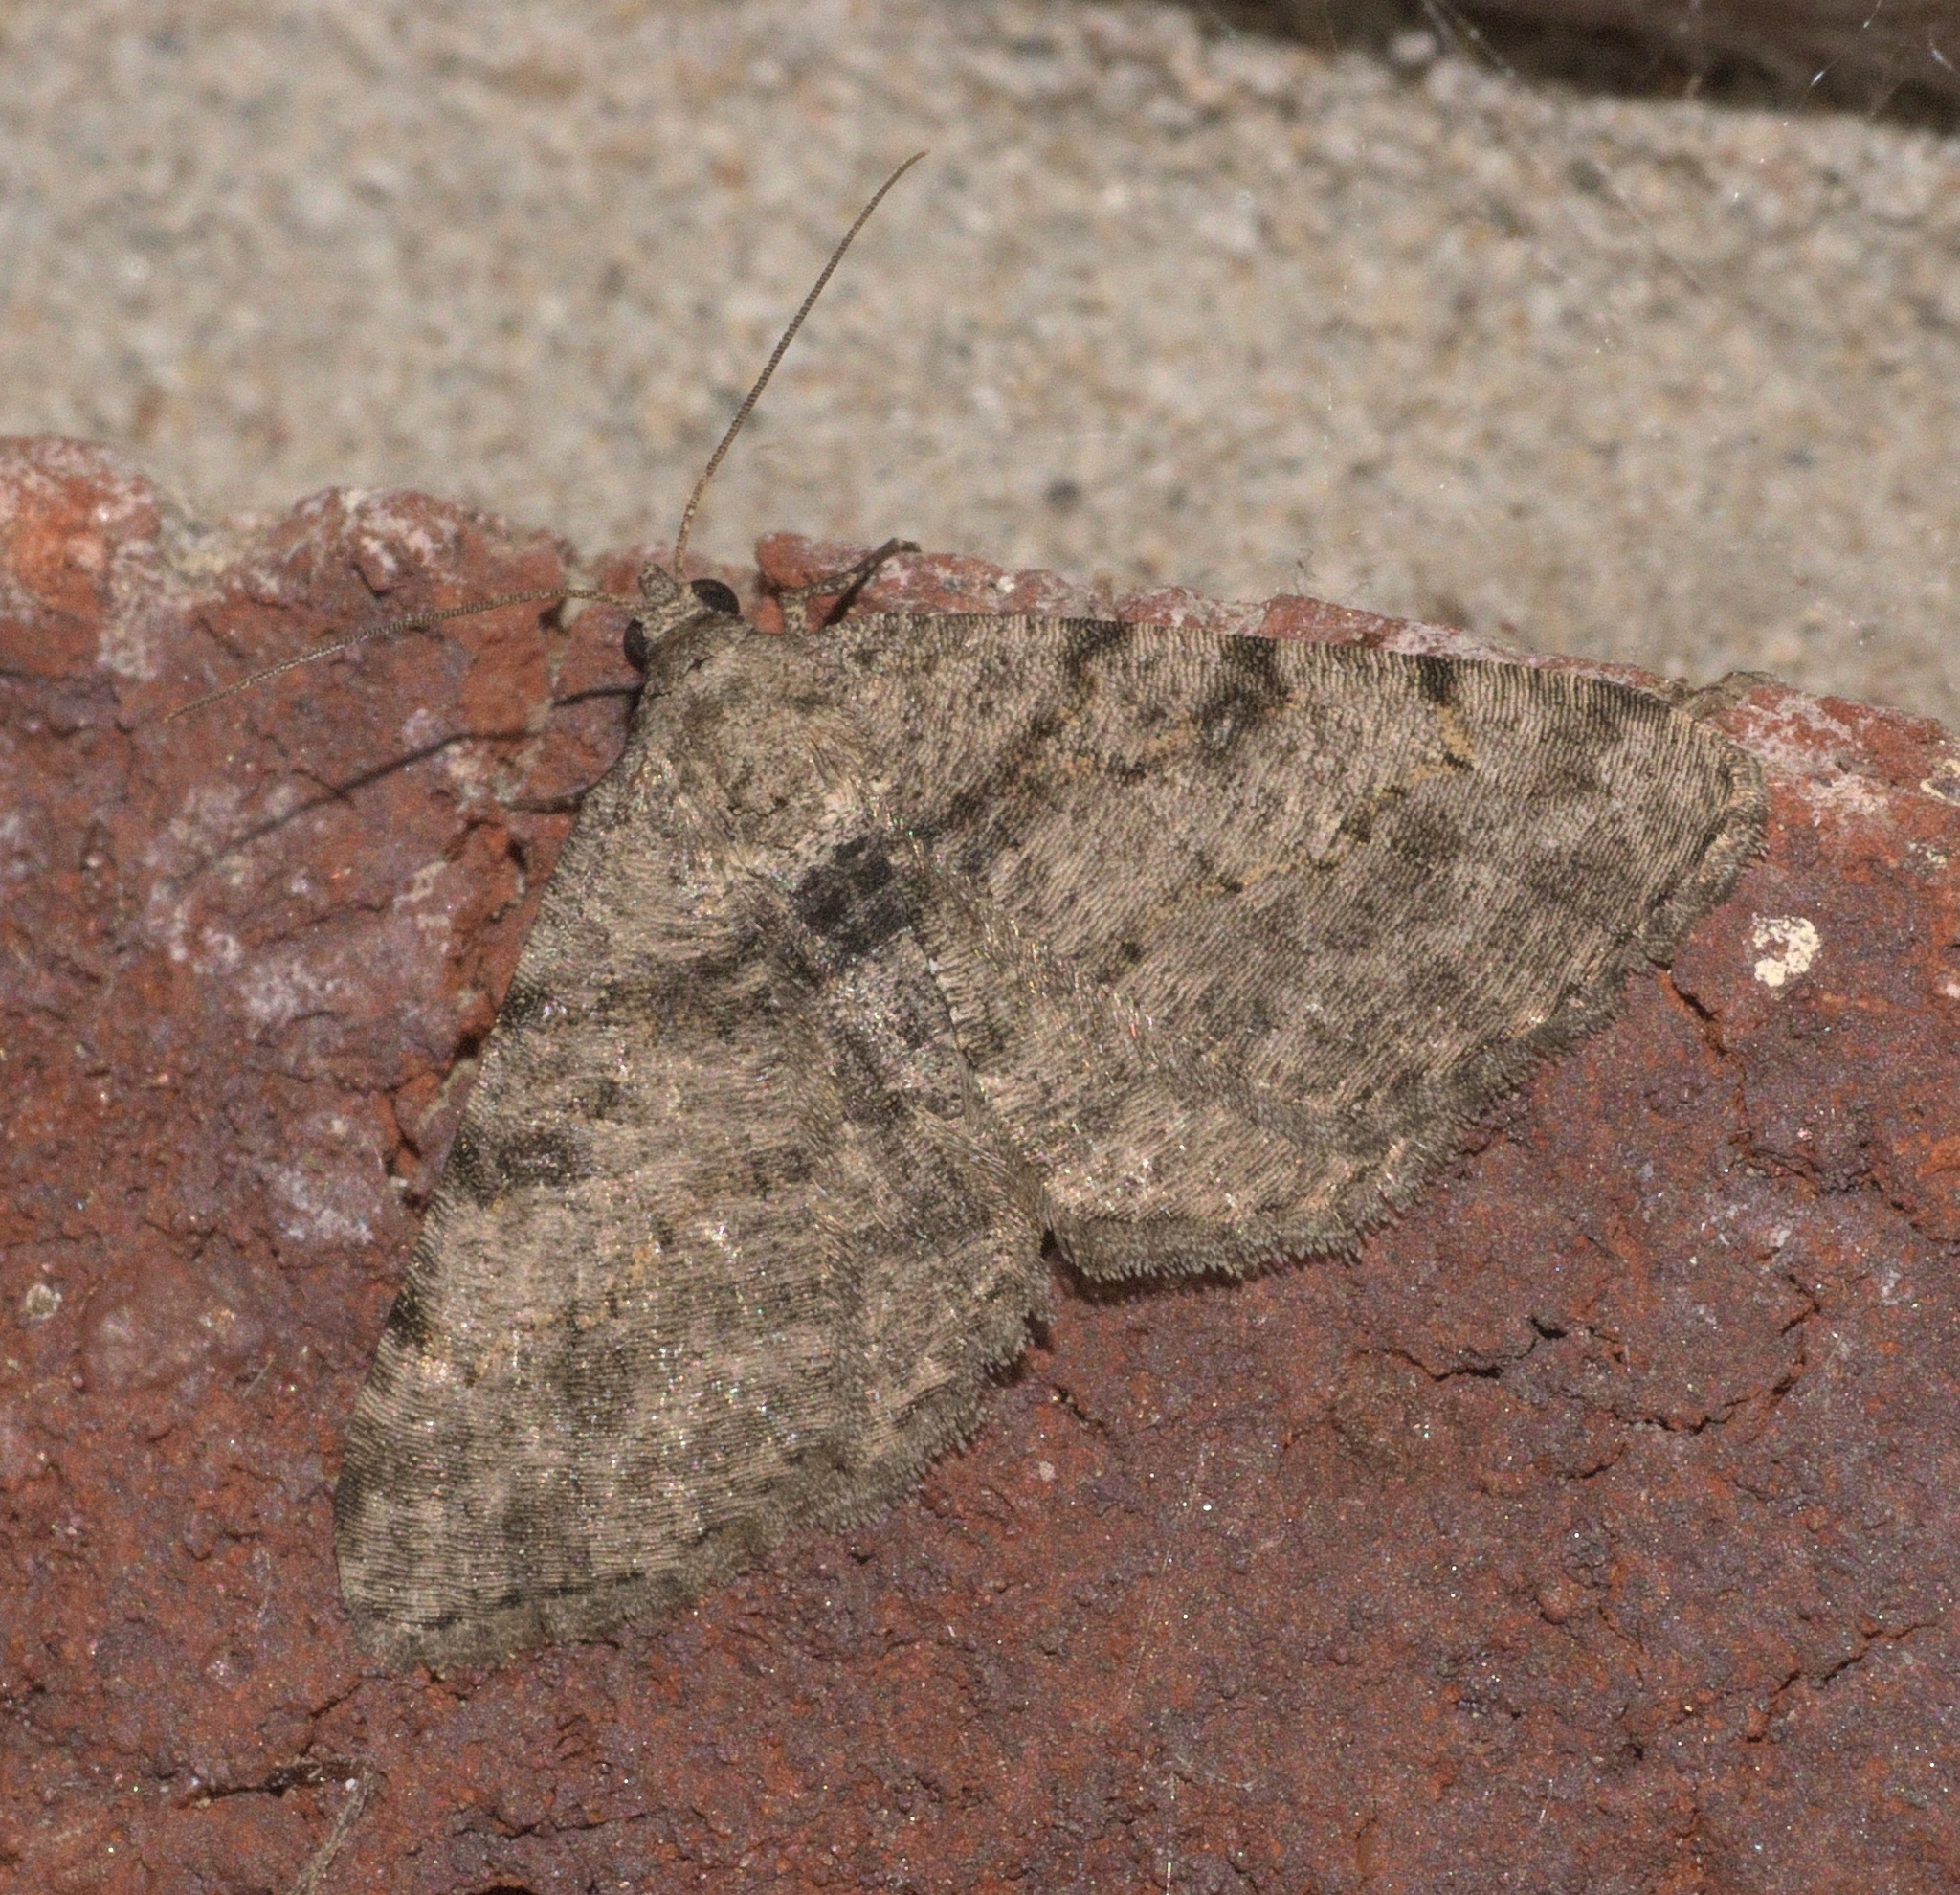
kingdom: Animalia
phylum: Arthropoda
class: Insecta
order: Lepidoptera
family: Geometridae
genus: Digrammia
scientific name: Digrammia gnophosaria
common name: Hollow-spotted angle
